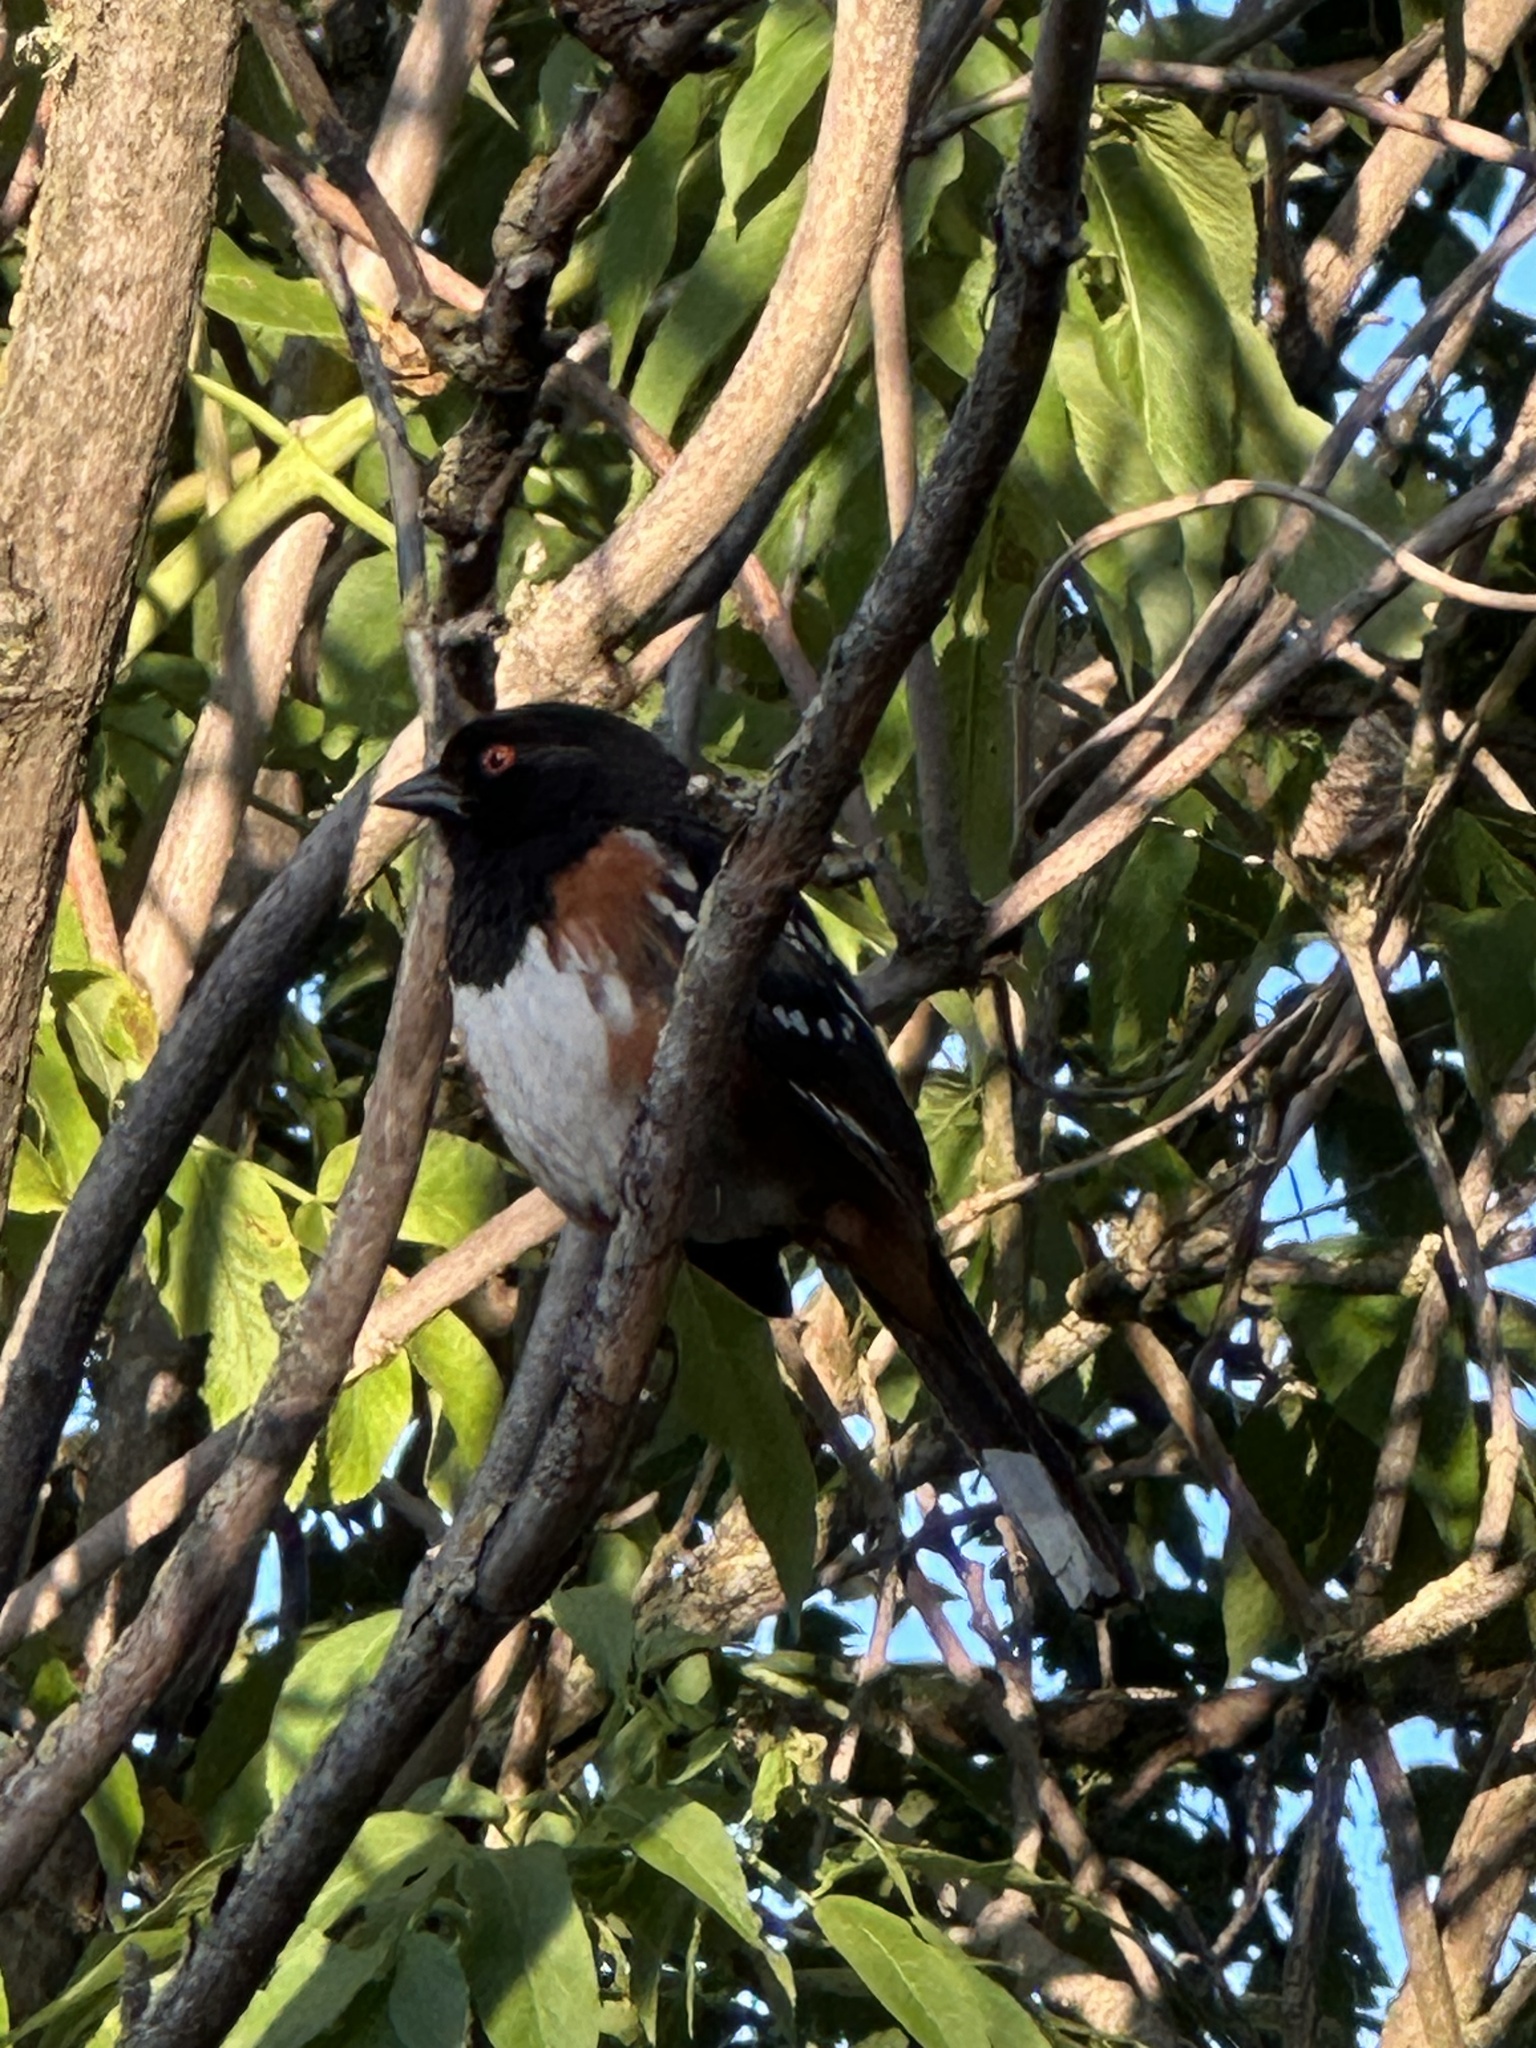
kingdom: Animalia
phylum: Chordata
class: Aves
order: Passeriformes
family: Passerellidae
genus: Pipilo
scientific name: Pipilo maculatus
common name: Spotted towhee
